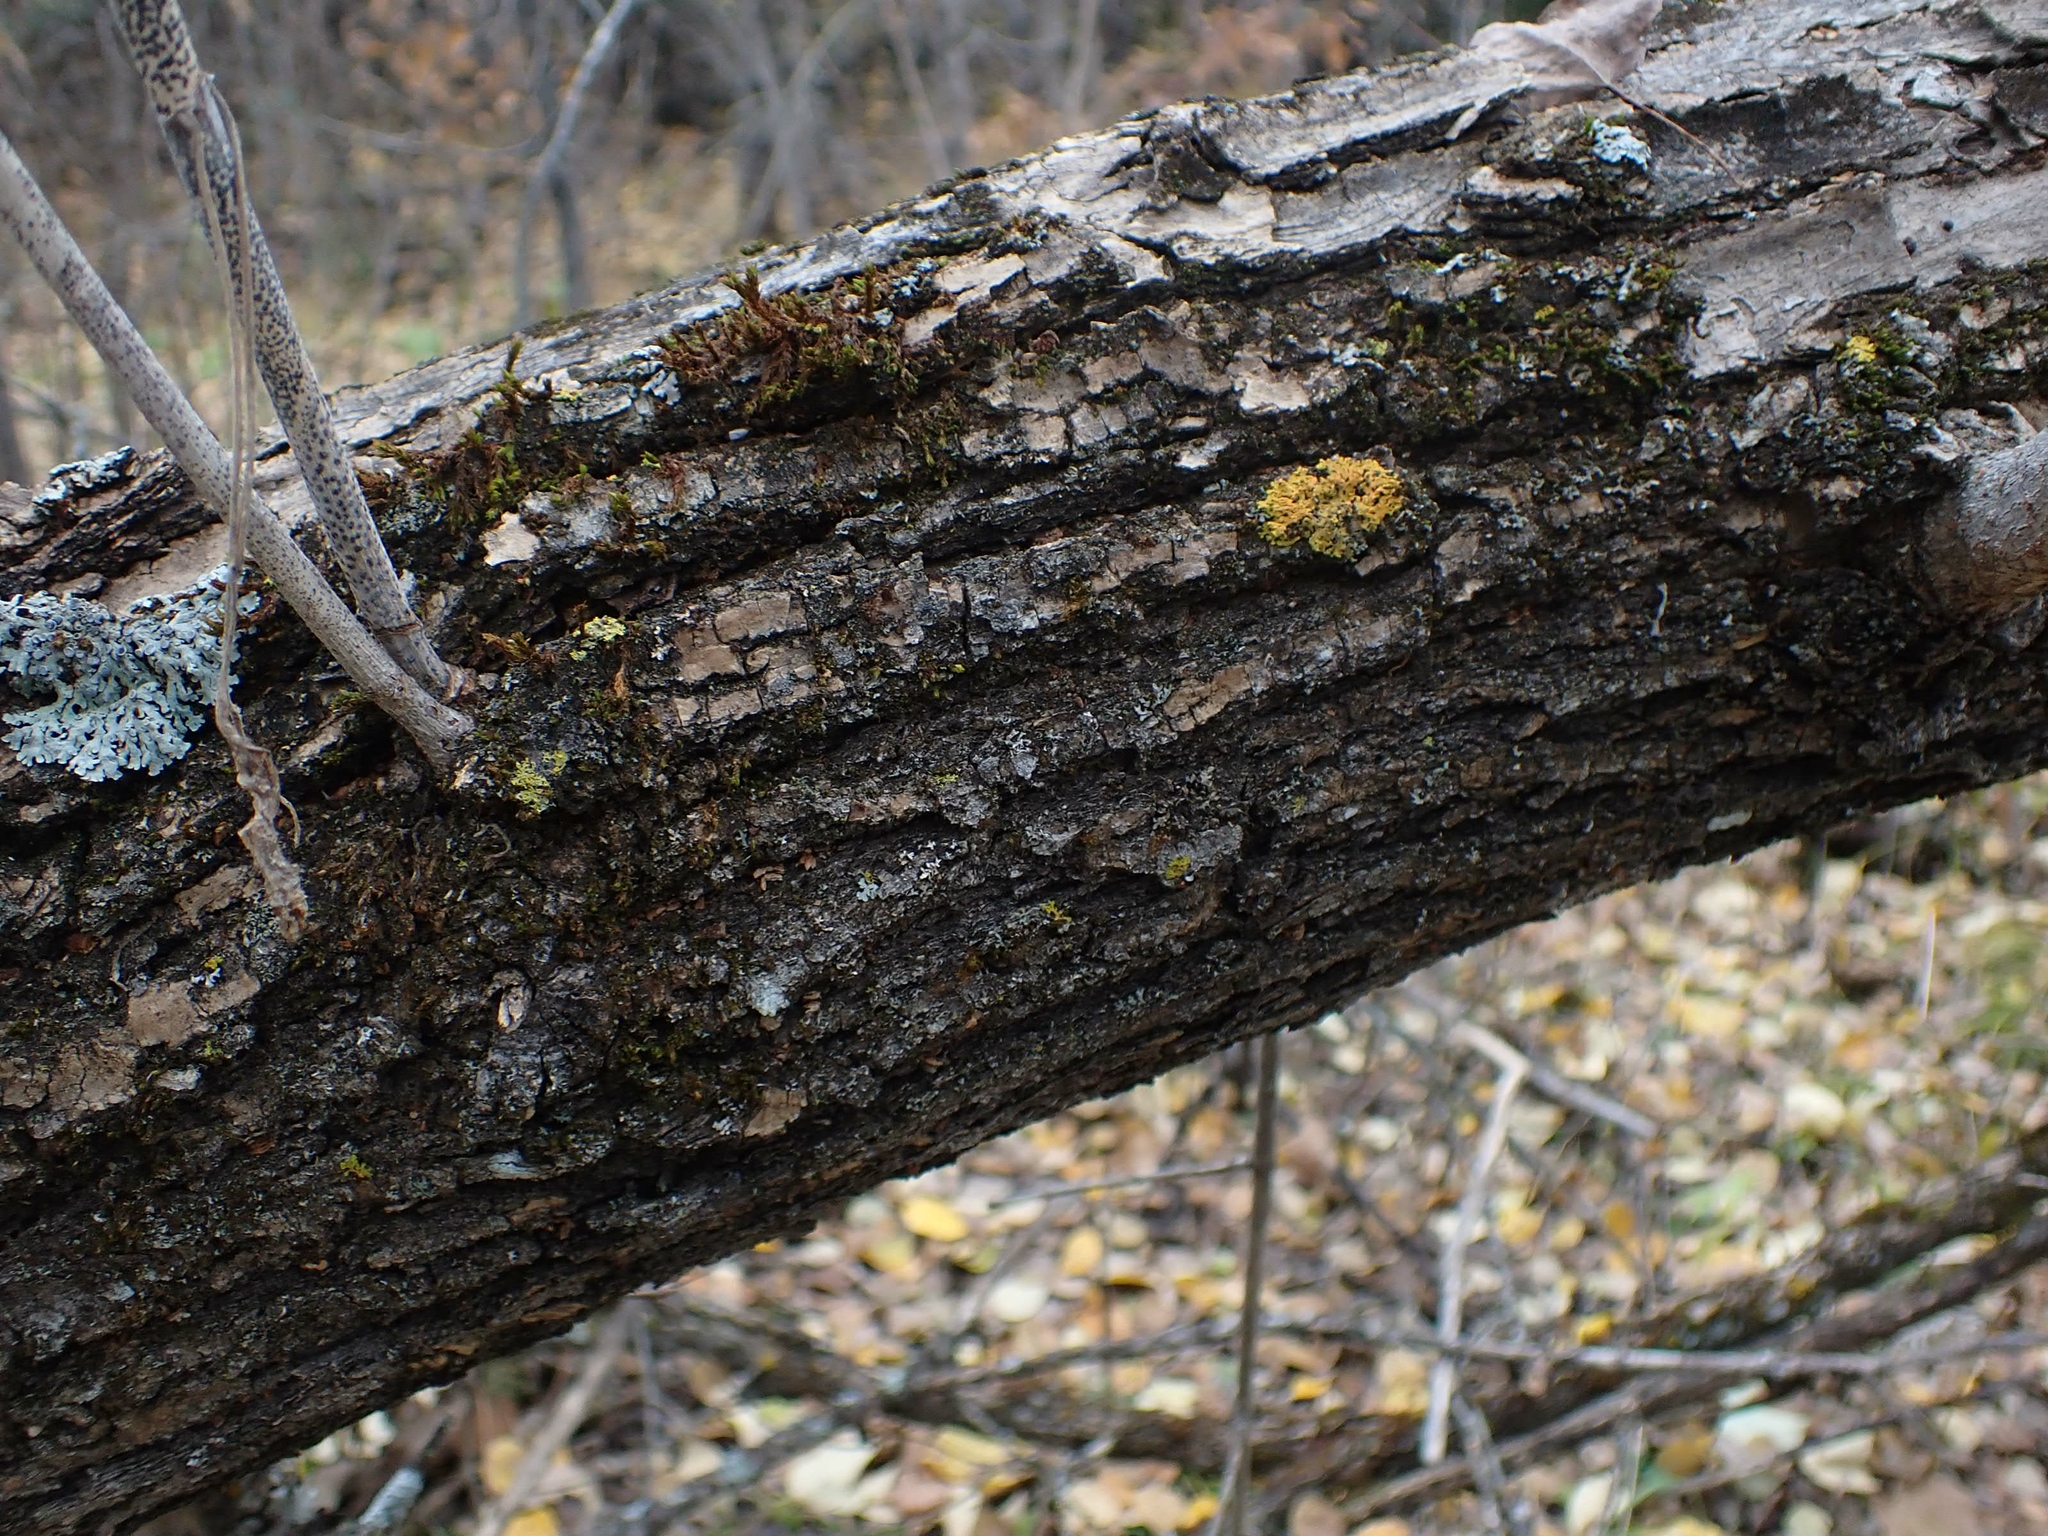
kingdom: Plantae
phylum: Tracheophyta
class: Magnoliopsida
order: Sapindales
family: Sapindaceae
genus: Acer
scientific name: Acer negundo
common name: Ashleaf maple
